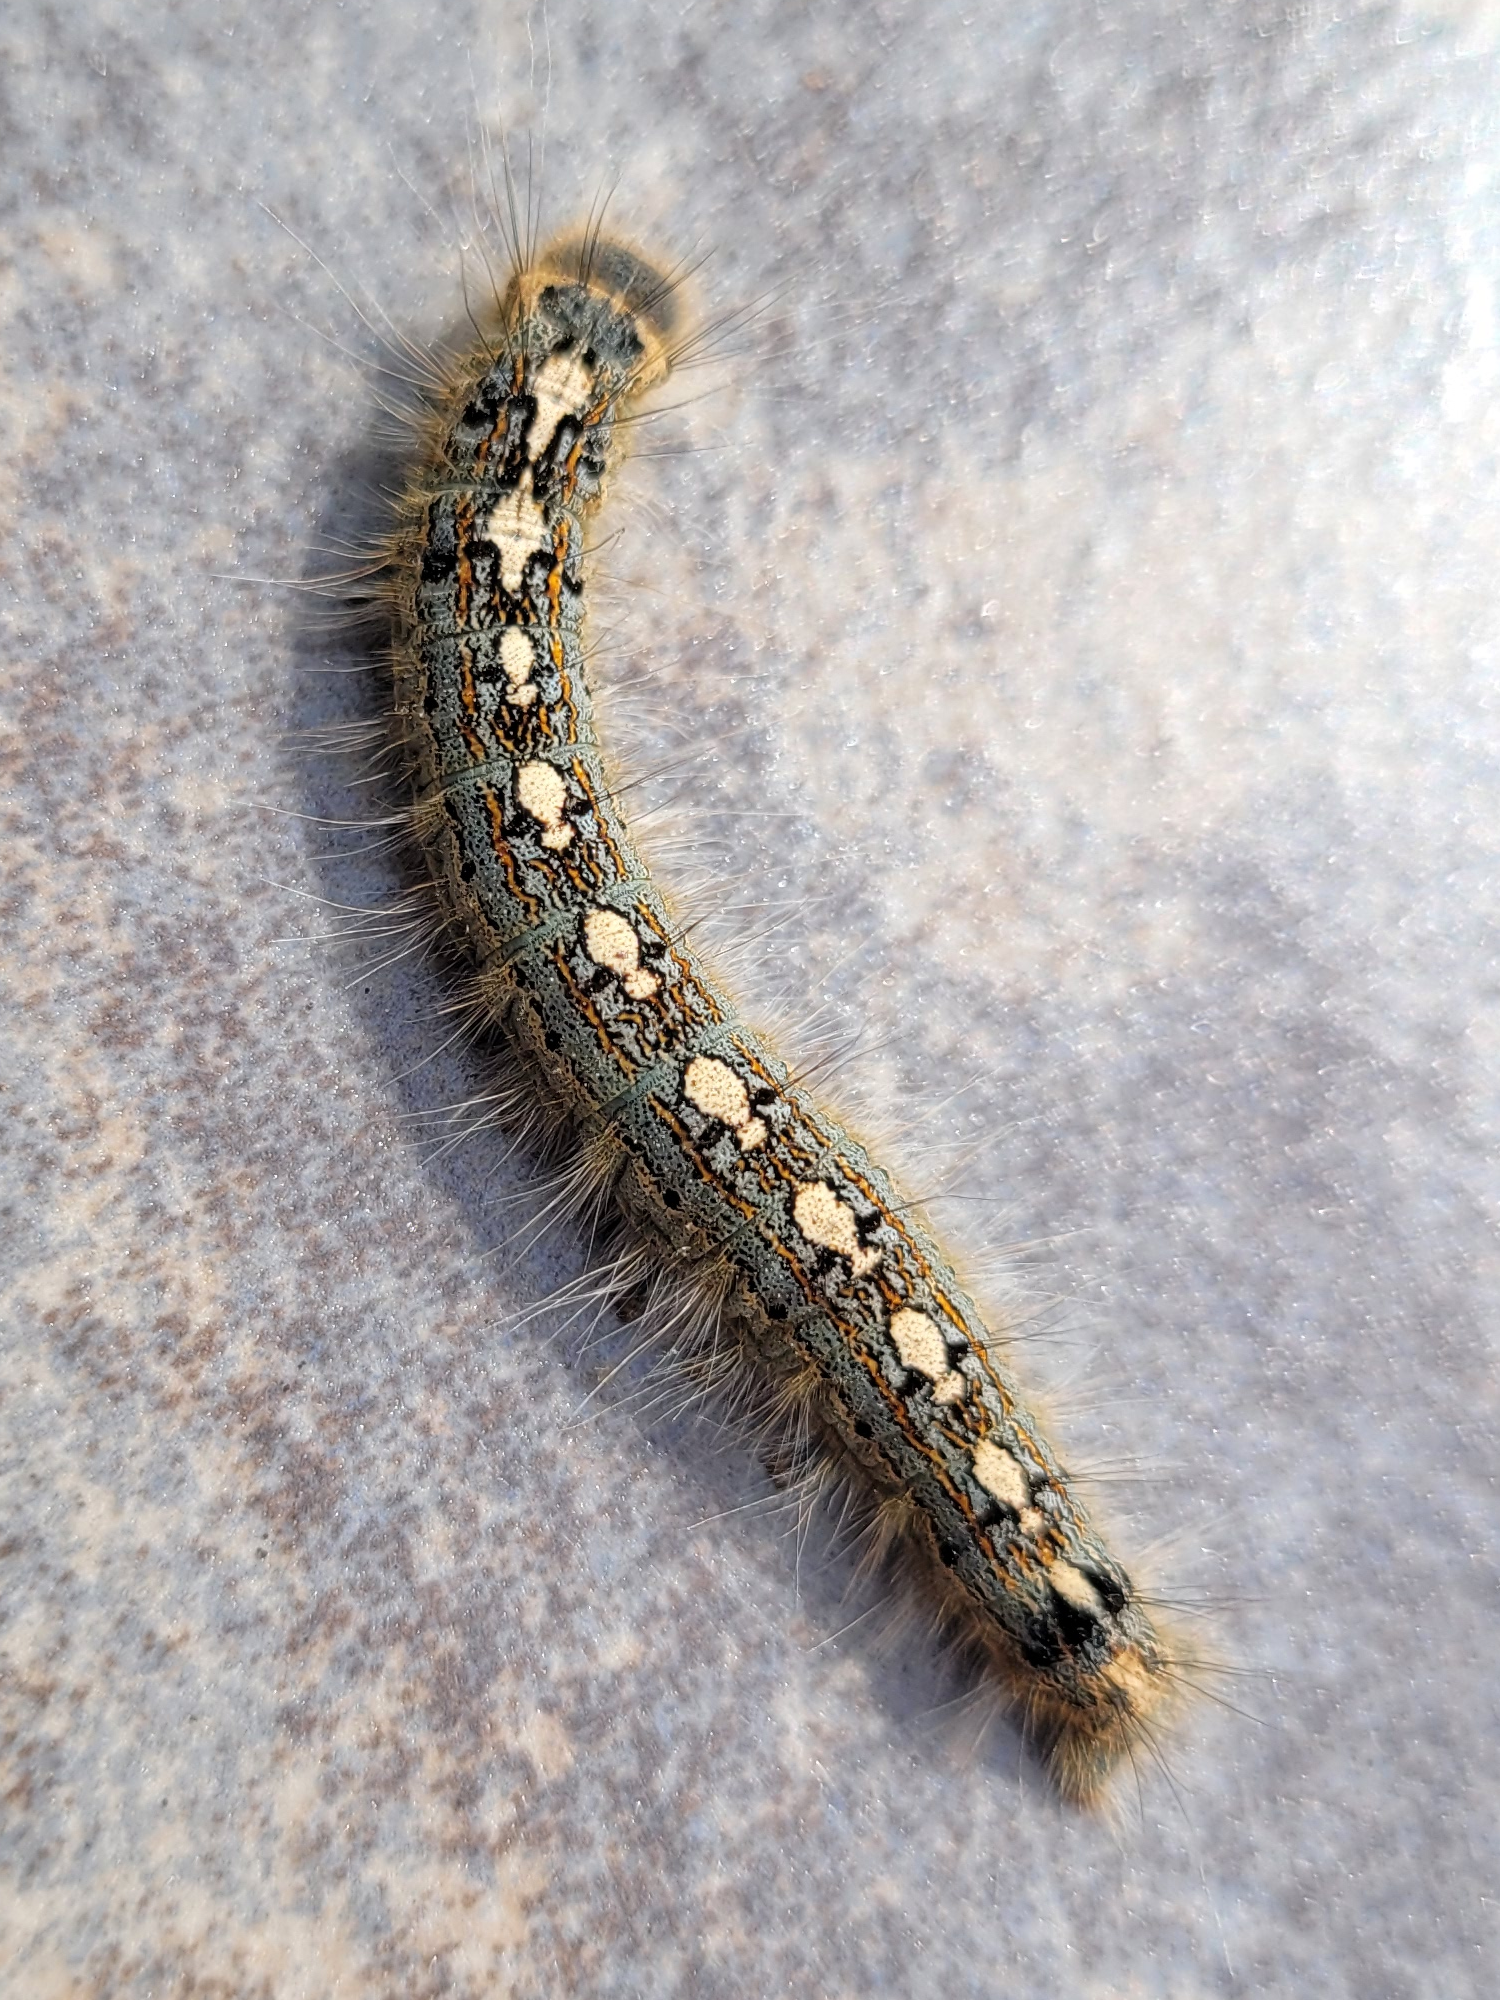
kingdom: Animalia
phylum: Arthropoda
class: Insecta
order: Lepidoptera
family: Lasiocampidae
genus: Malacosoma
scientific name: Malacosoma disstria
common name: Forest tent caterpillar
